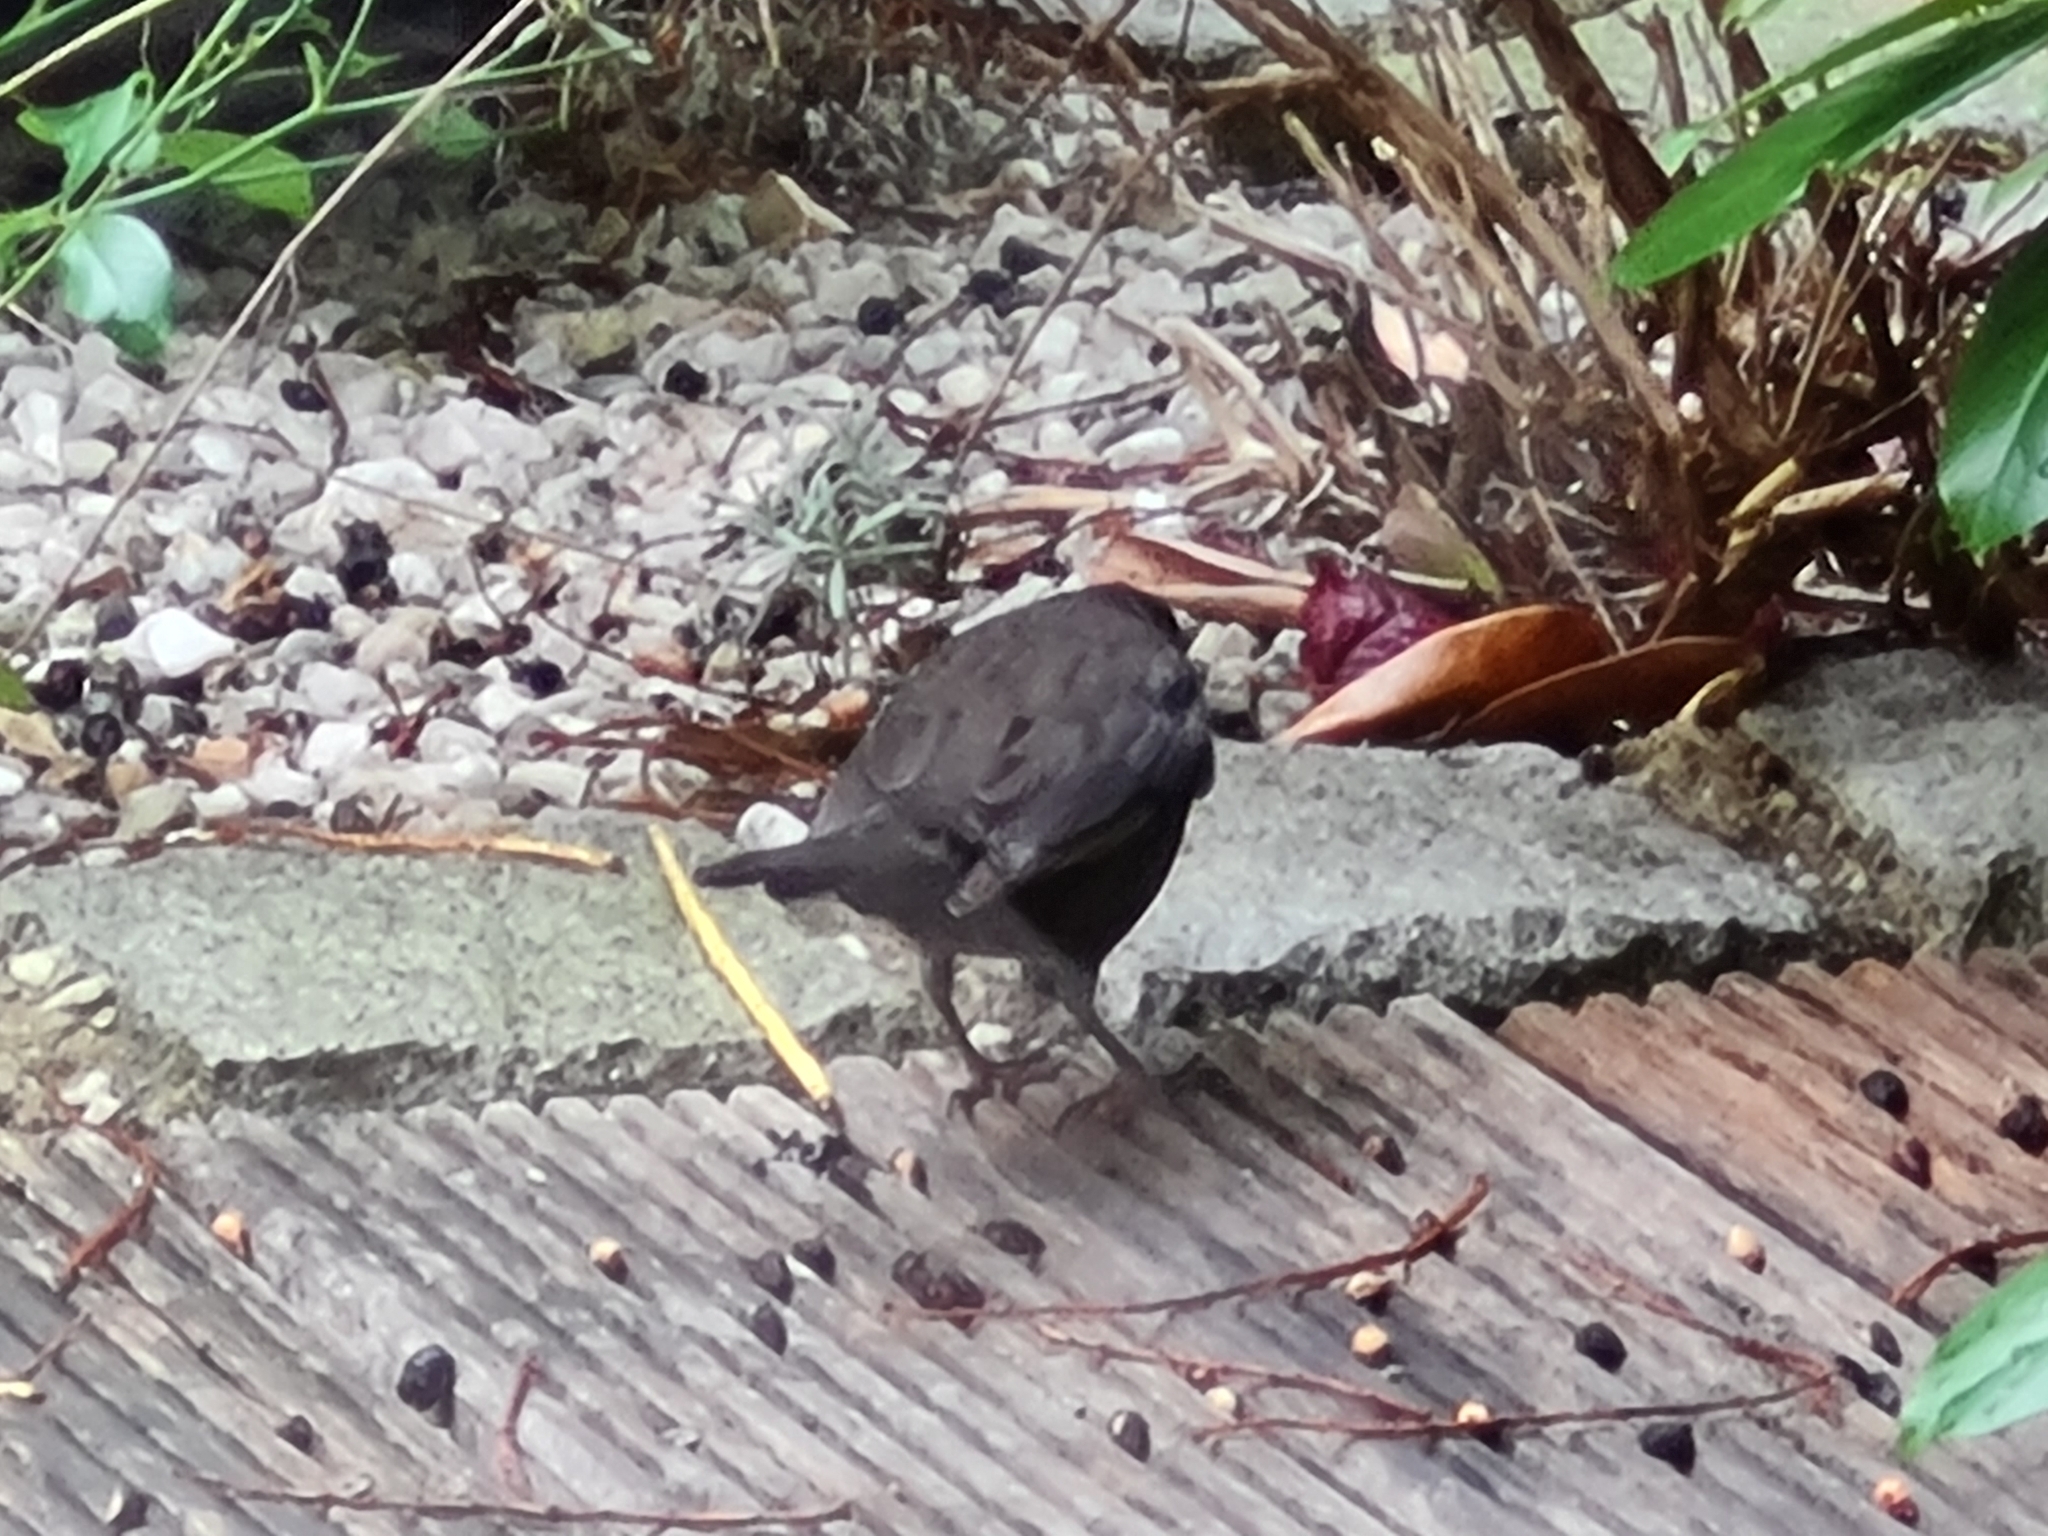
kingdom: Animalia
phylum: Chordata
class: Aves
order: Passeriformes
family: Turdidae
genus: Turdus
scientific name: Turdus merula
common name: Common blackbird
